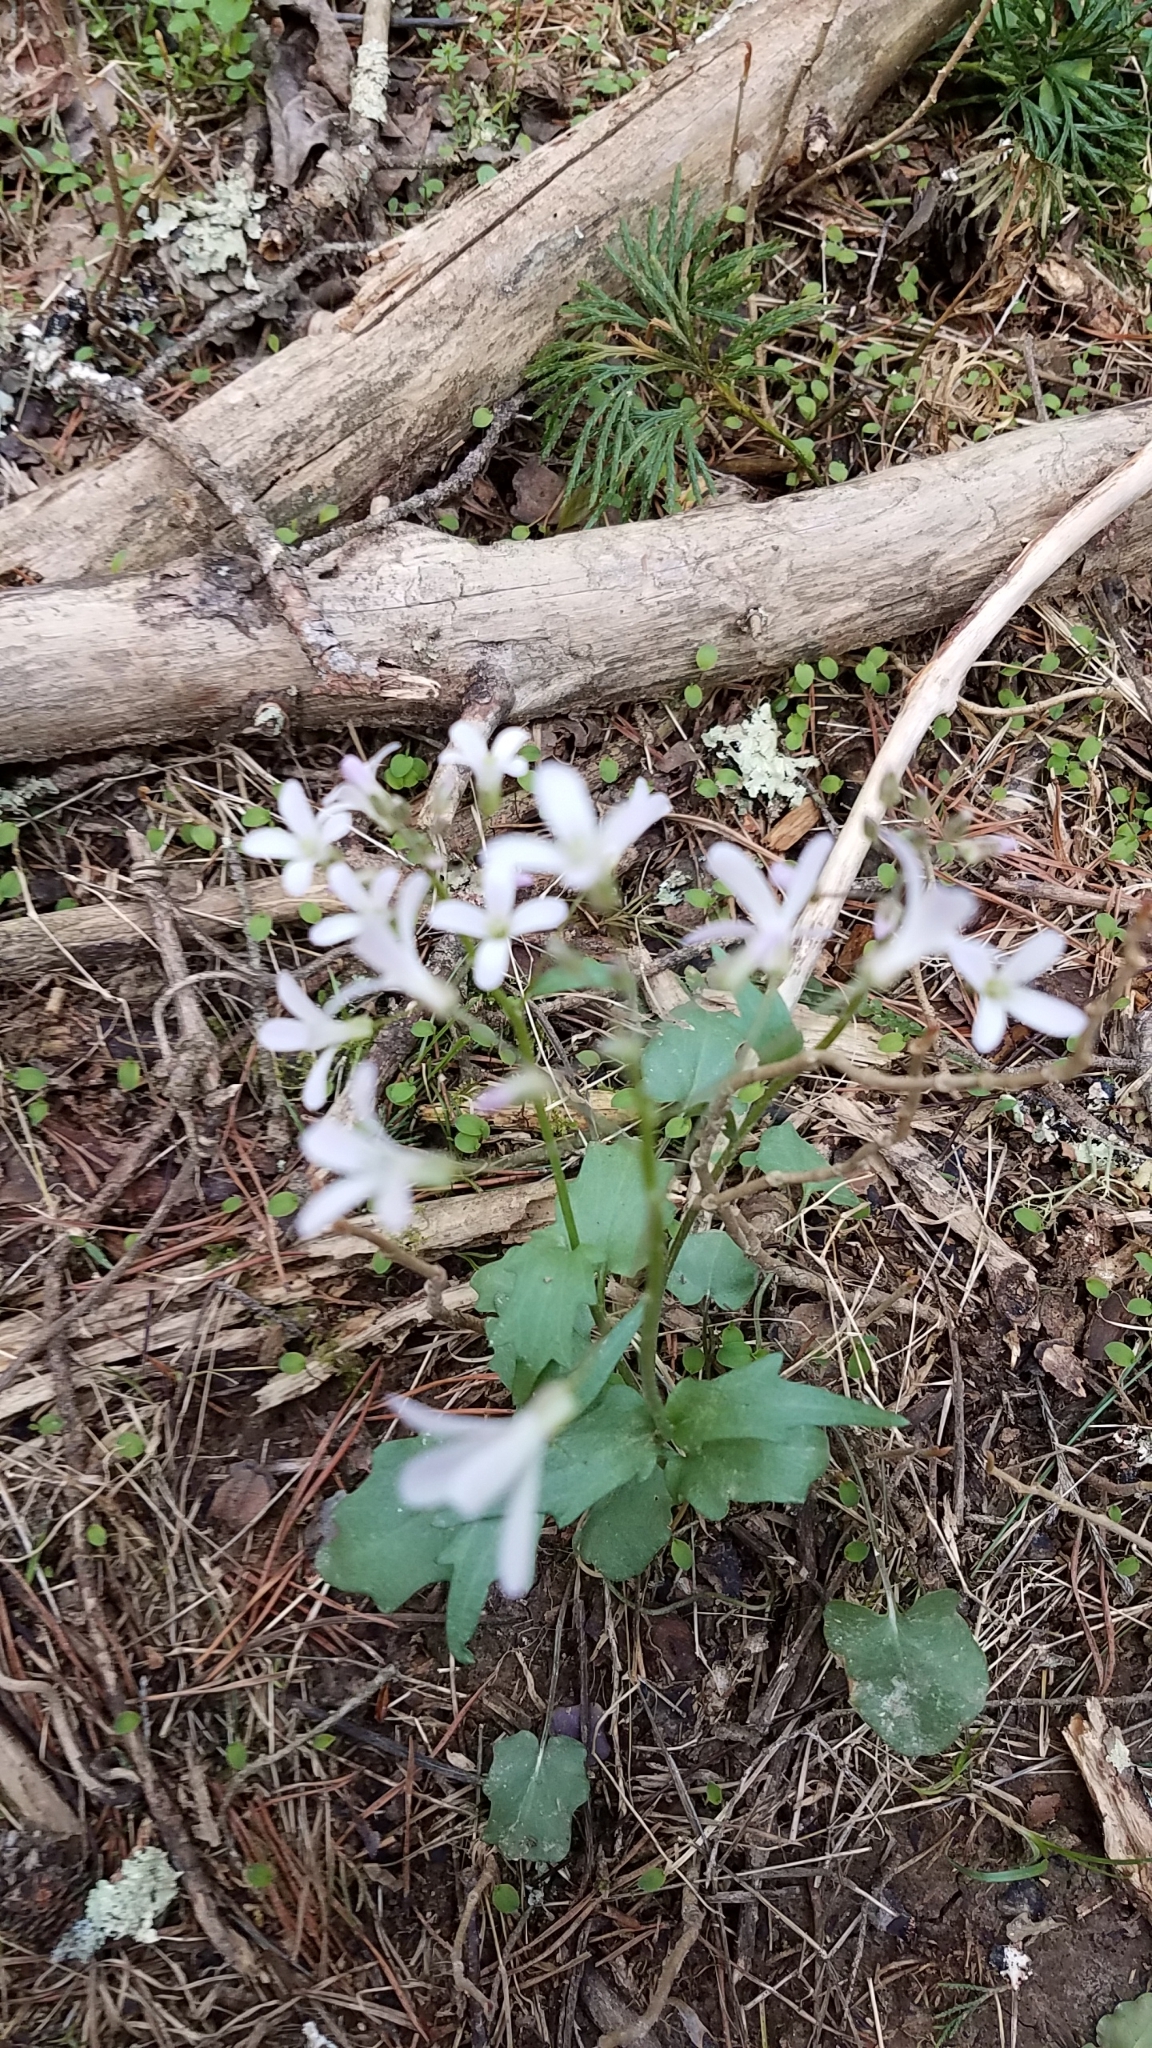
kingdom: Plantae
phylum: Tracheophyta
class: Magnoliopsida
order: Brassicales
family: Brassicaceae
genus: Cardamine
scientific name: Cardamine bulbosa
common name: Spring cress
